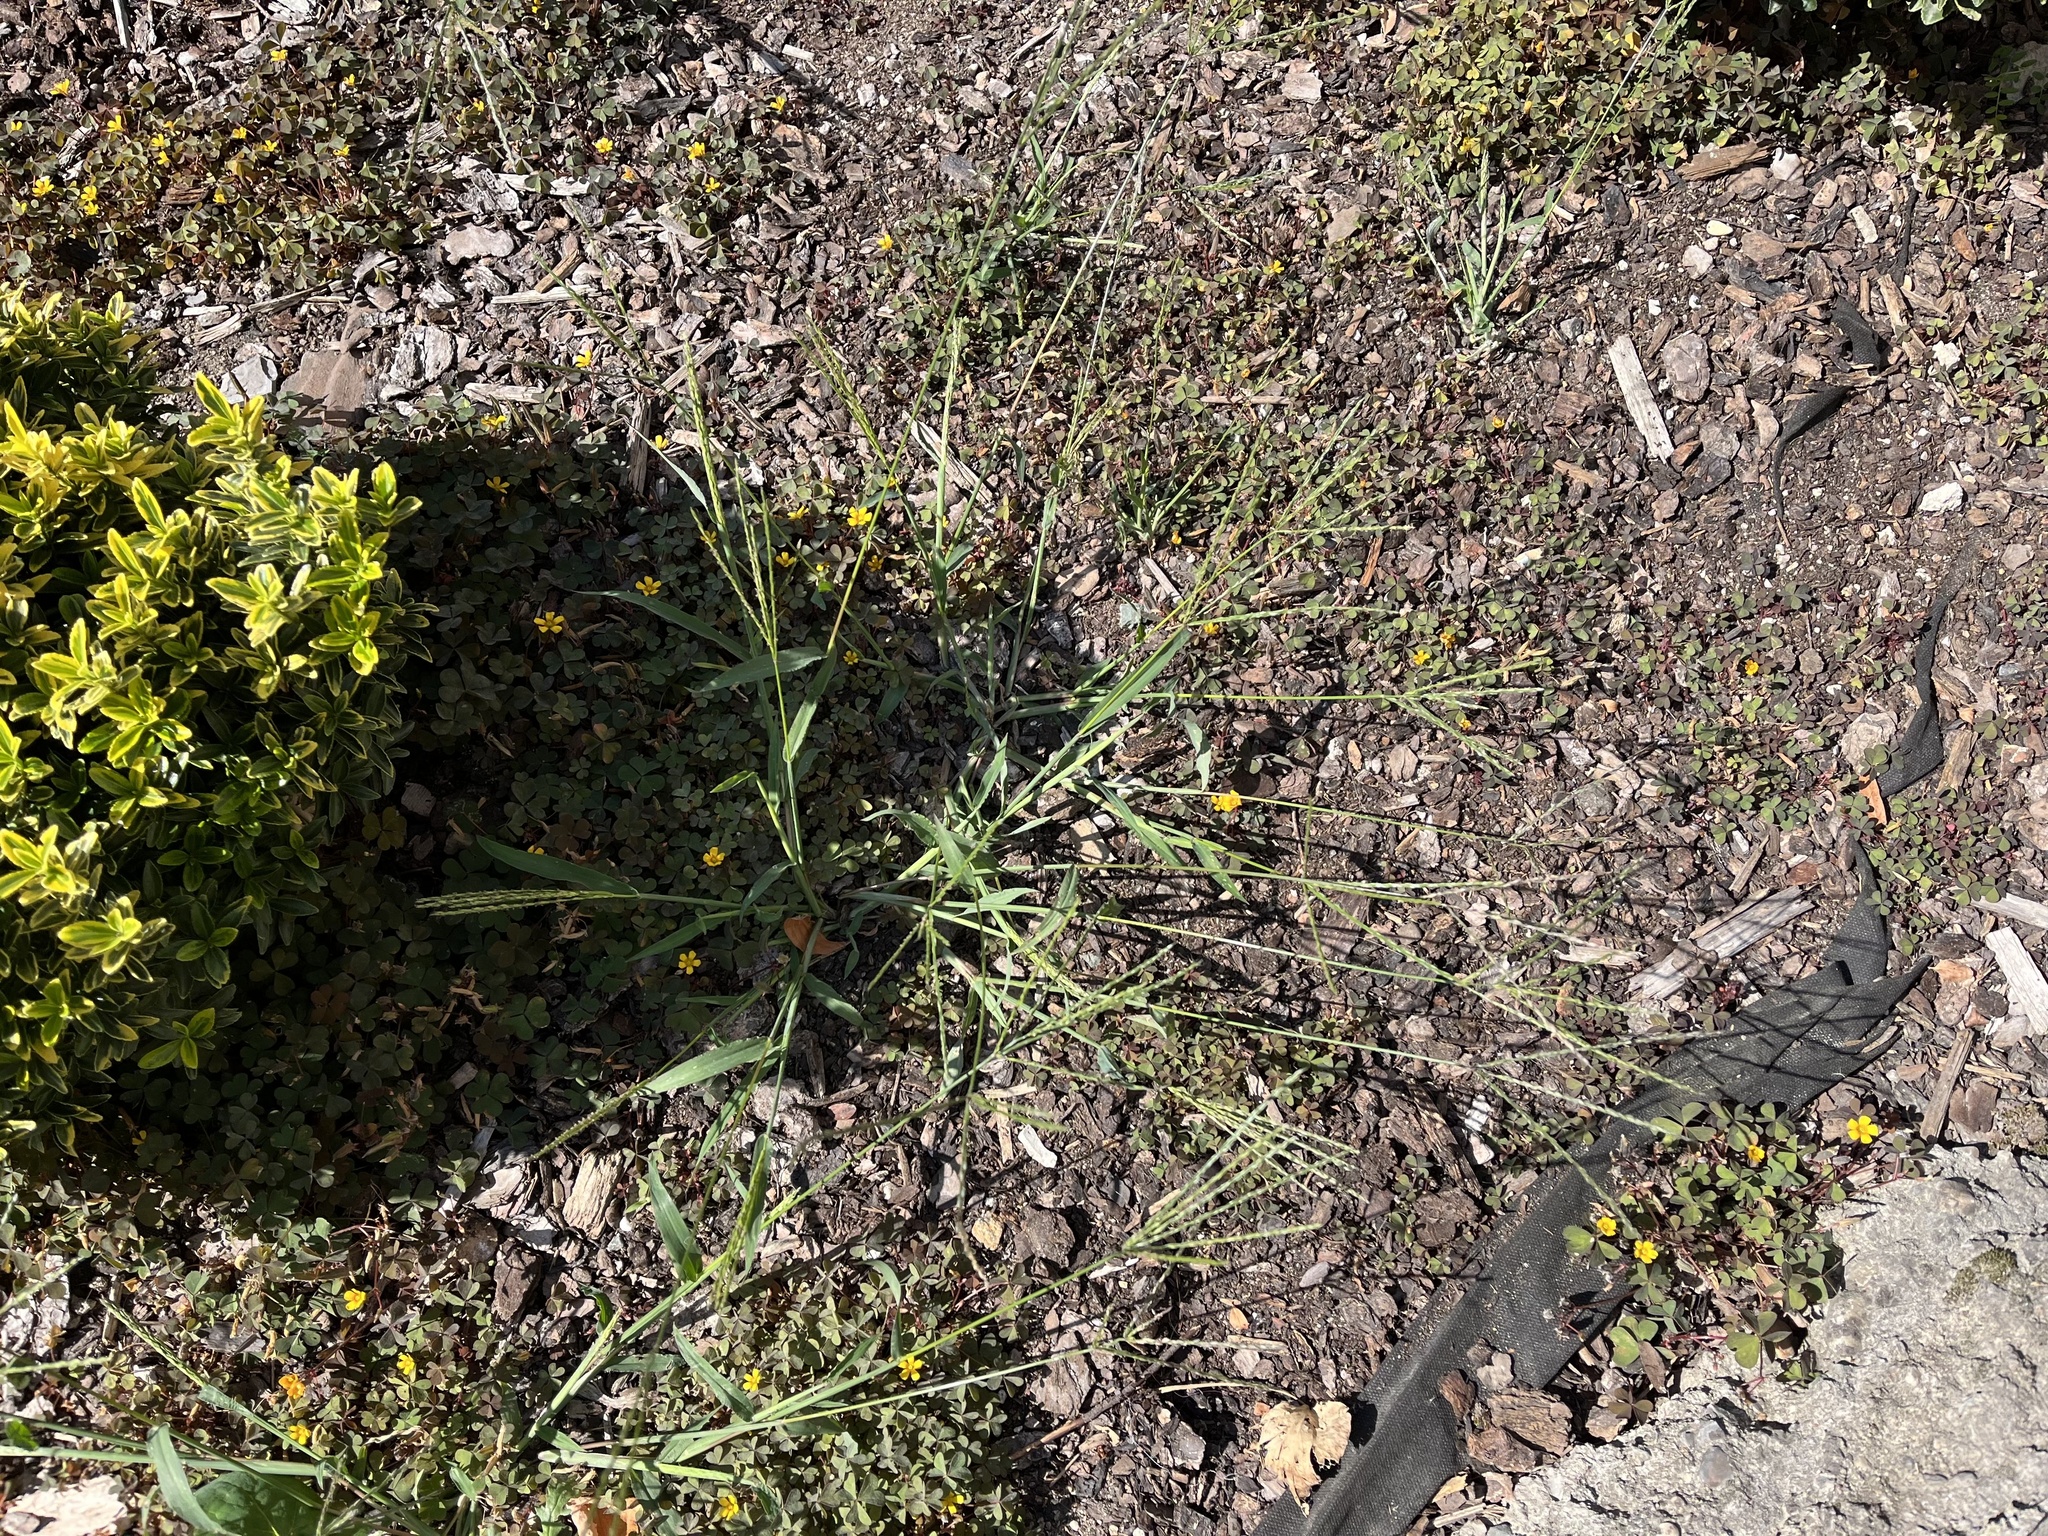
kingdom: Plantae
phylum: Tracheophyta
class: Liliopsida
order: Poales
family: Poaceae
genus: Digitaria
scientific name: Digitaria sanguinalis
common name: Hairy crabgrass
